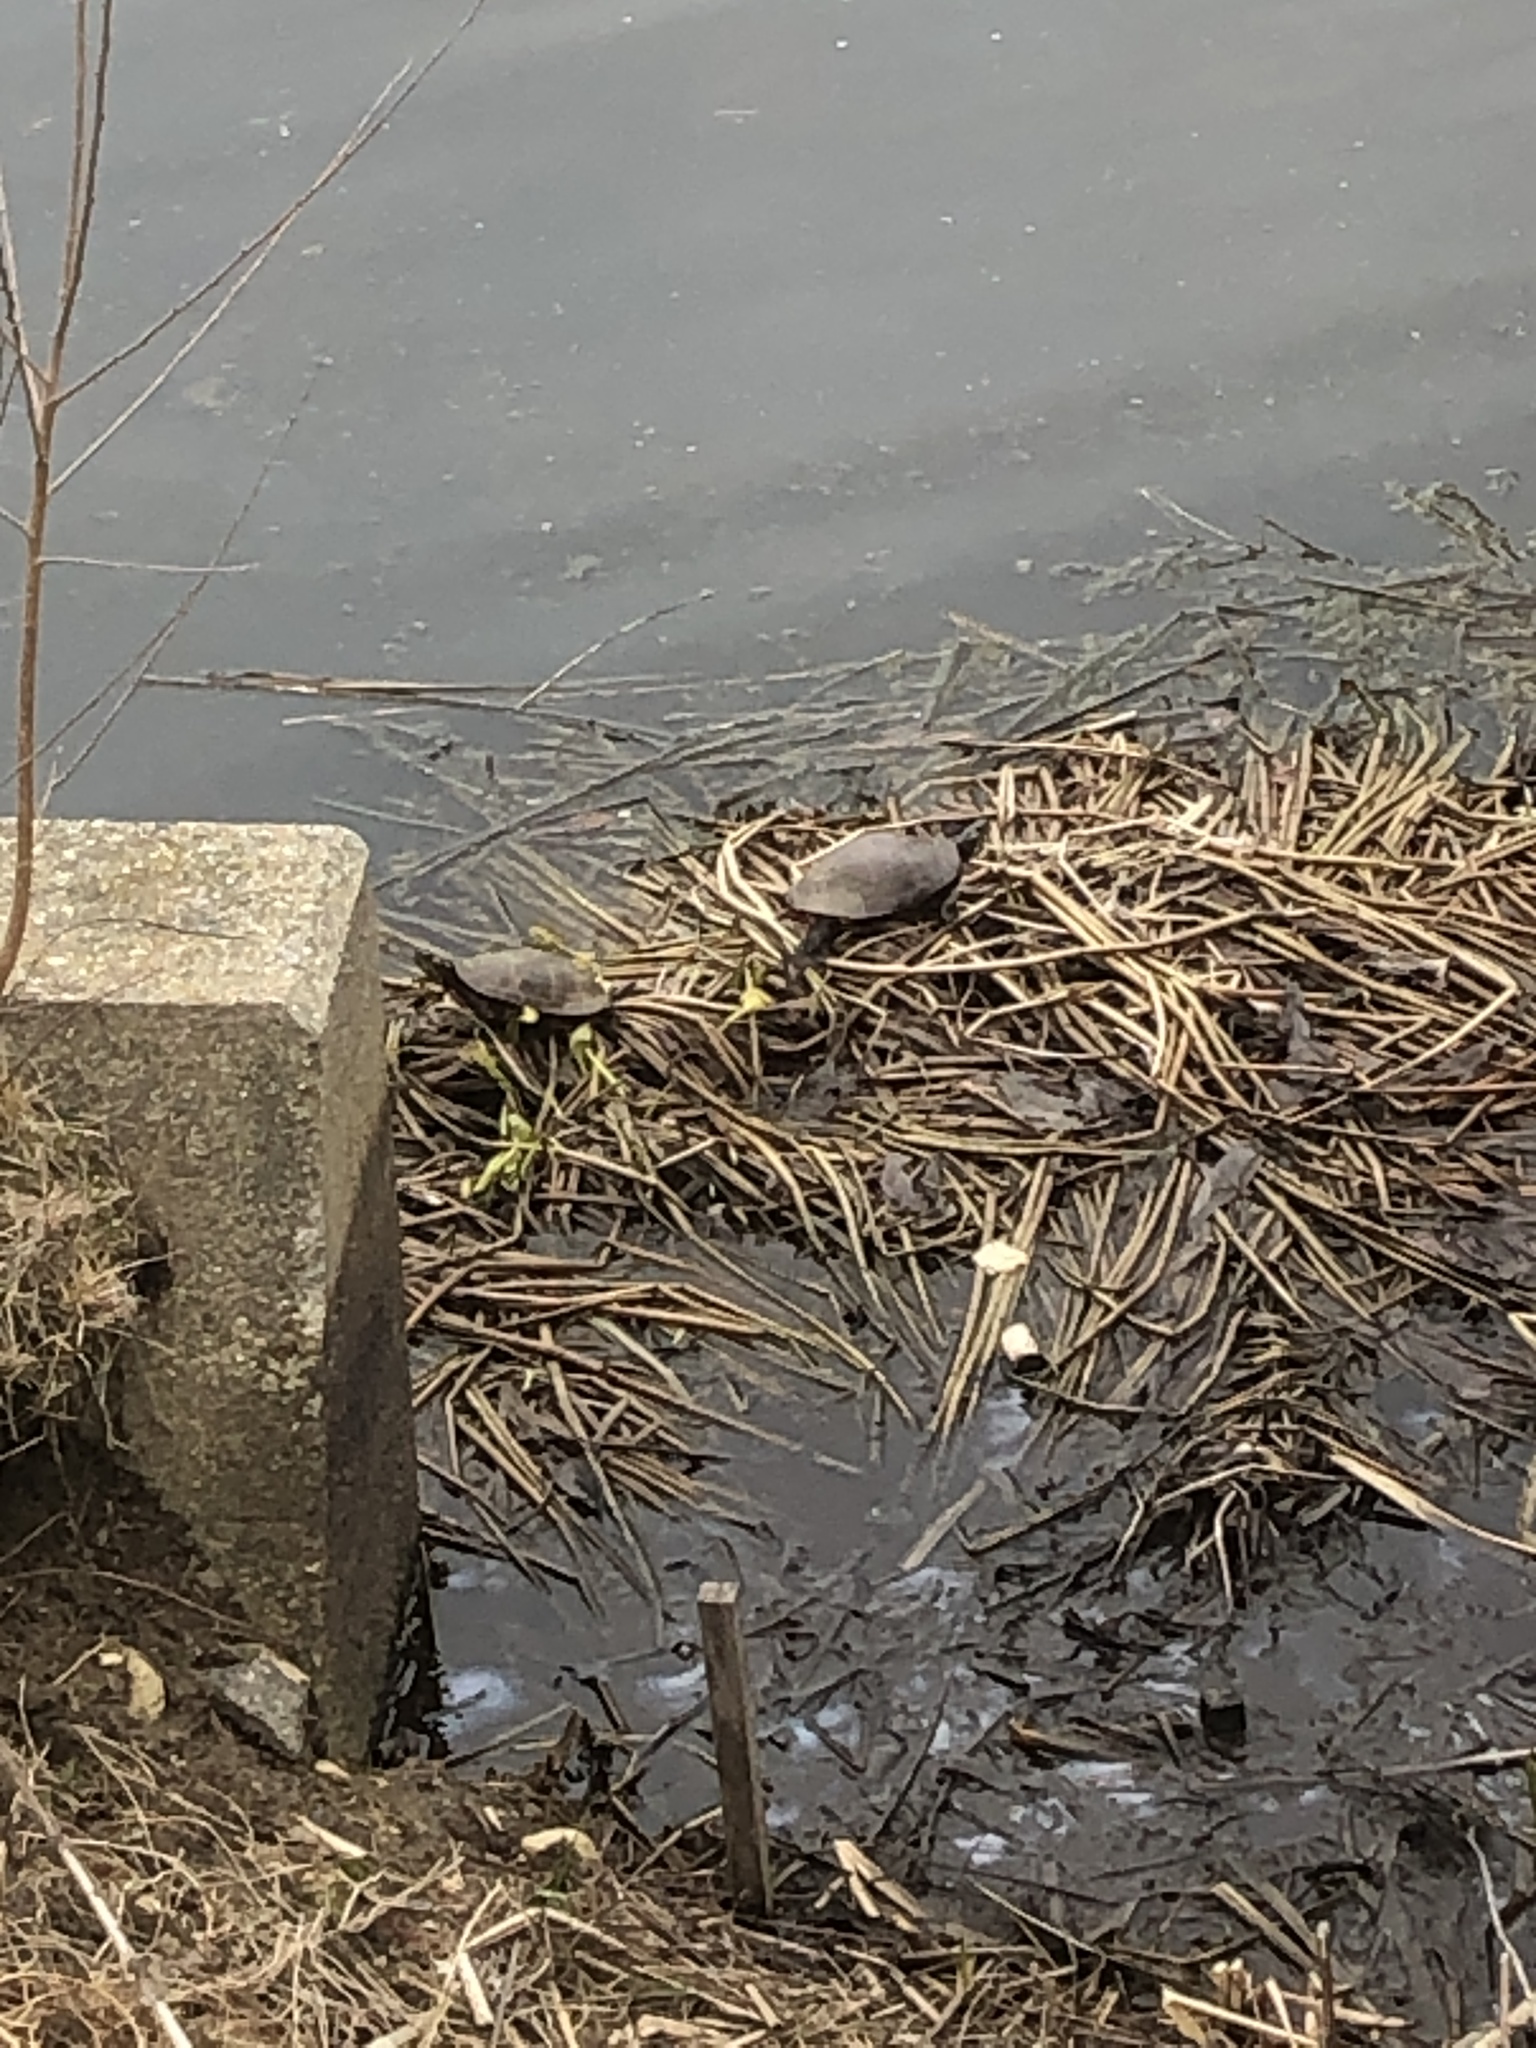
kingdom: Animalia
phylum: Chordata
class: Testudines
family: Emydidae
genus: Chrysemys
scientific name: Chrysemys picta
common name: Painted turtle
